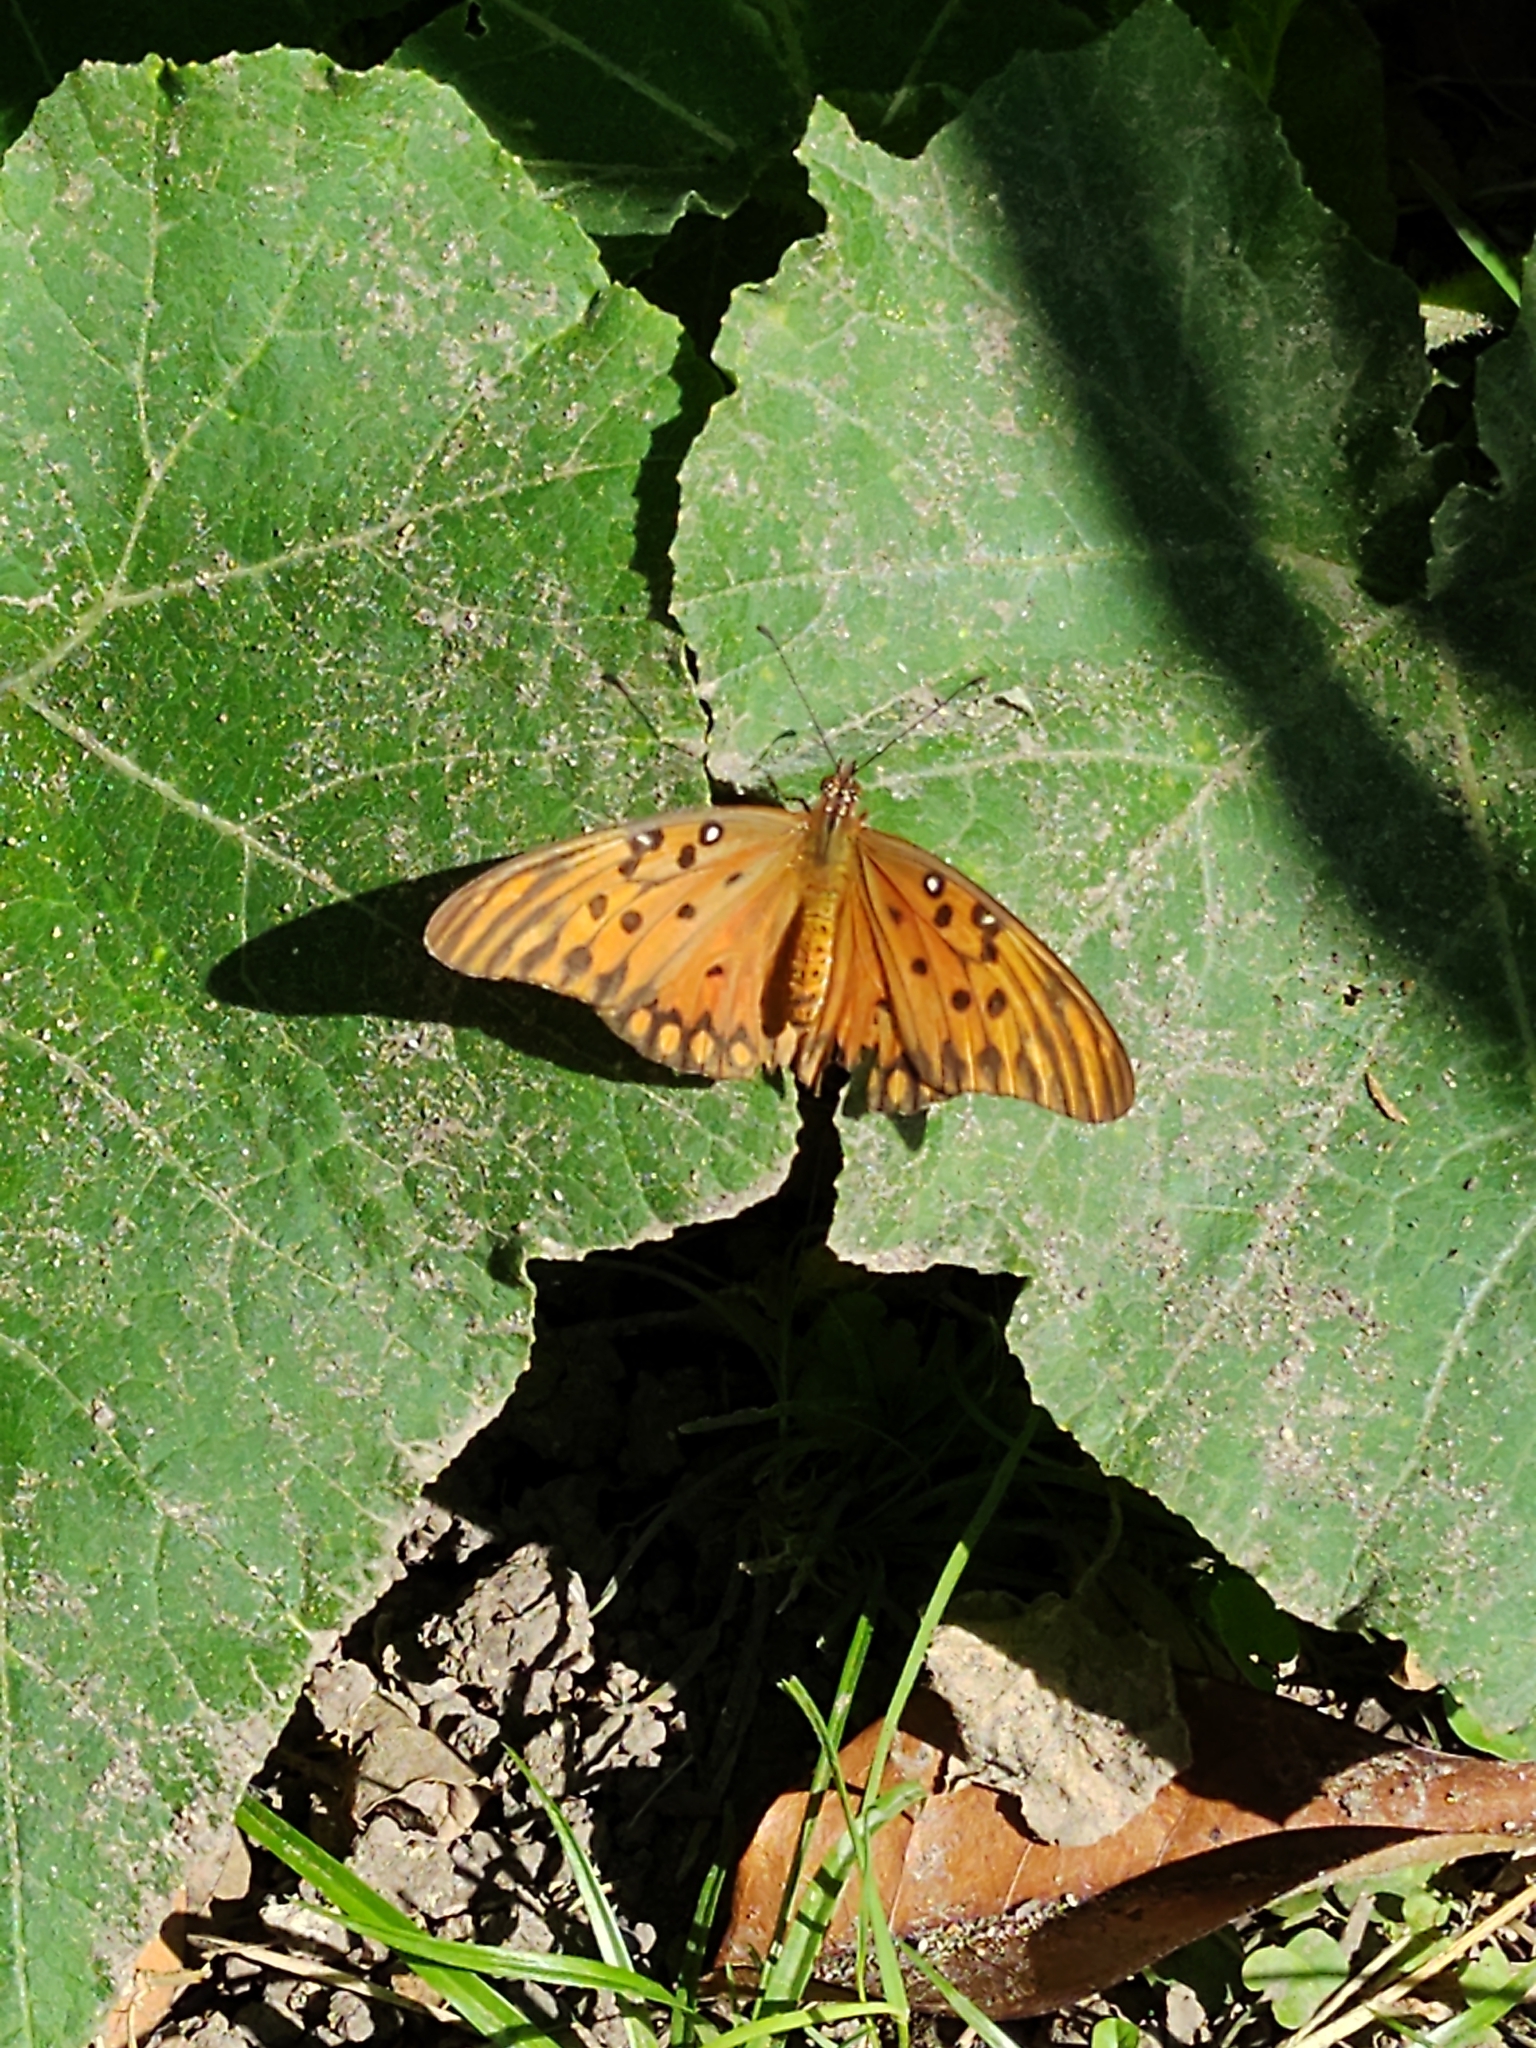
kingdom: Animalia
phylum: Arthropoda
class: Insecta
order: Lepidoptera
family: Nymphalidae
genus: Dione
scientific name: Dione vanillae
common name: Gulf fritillary
